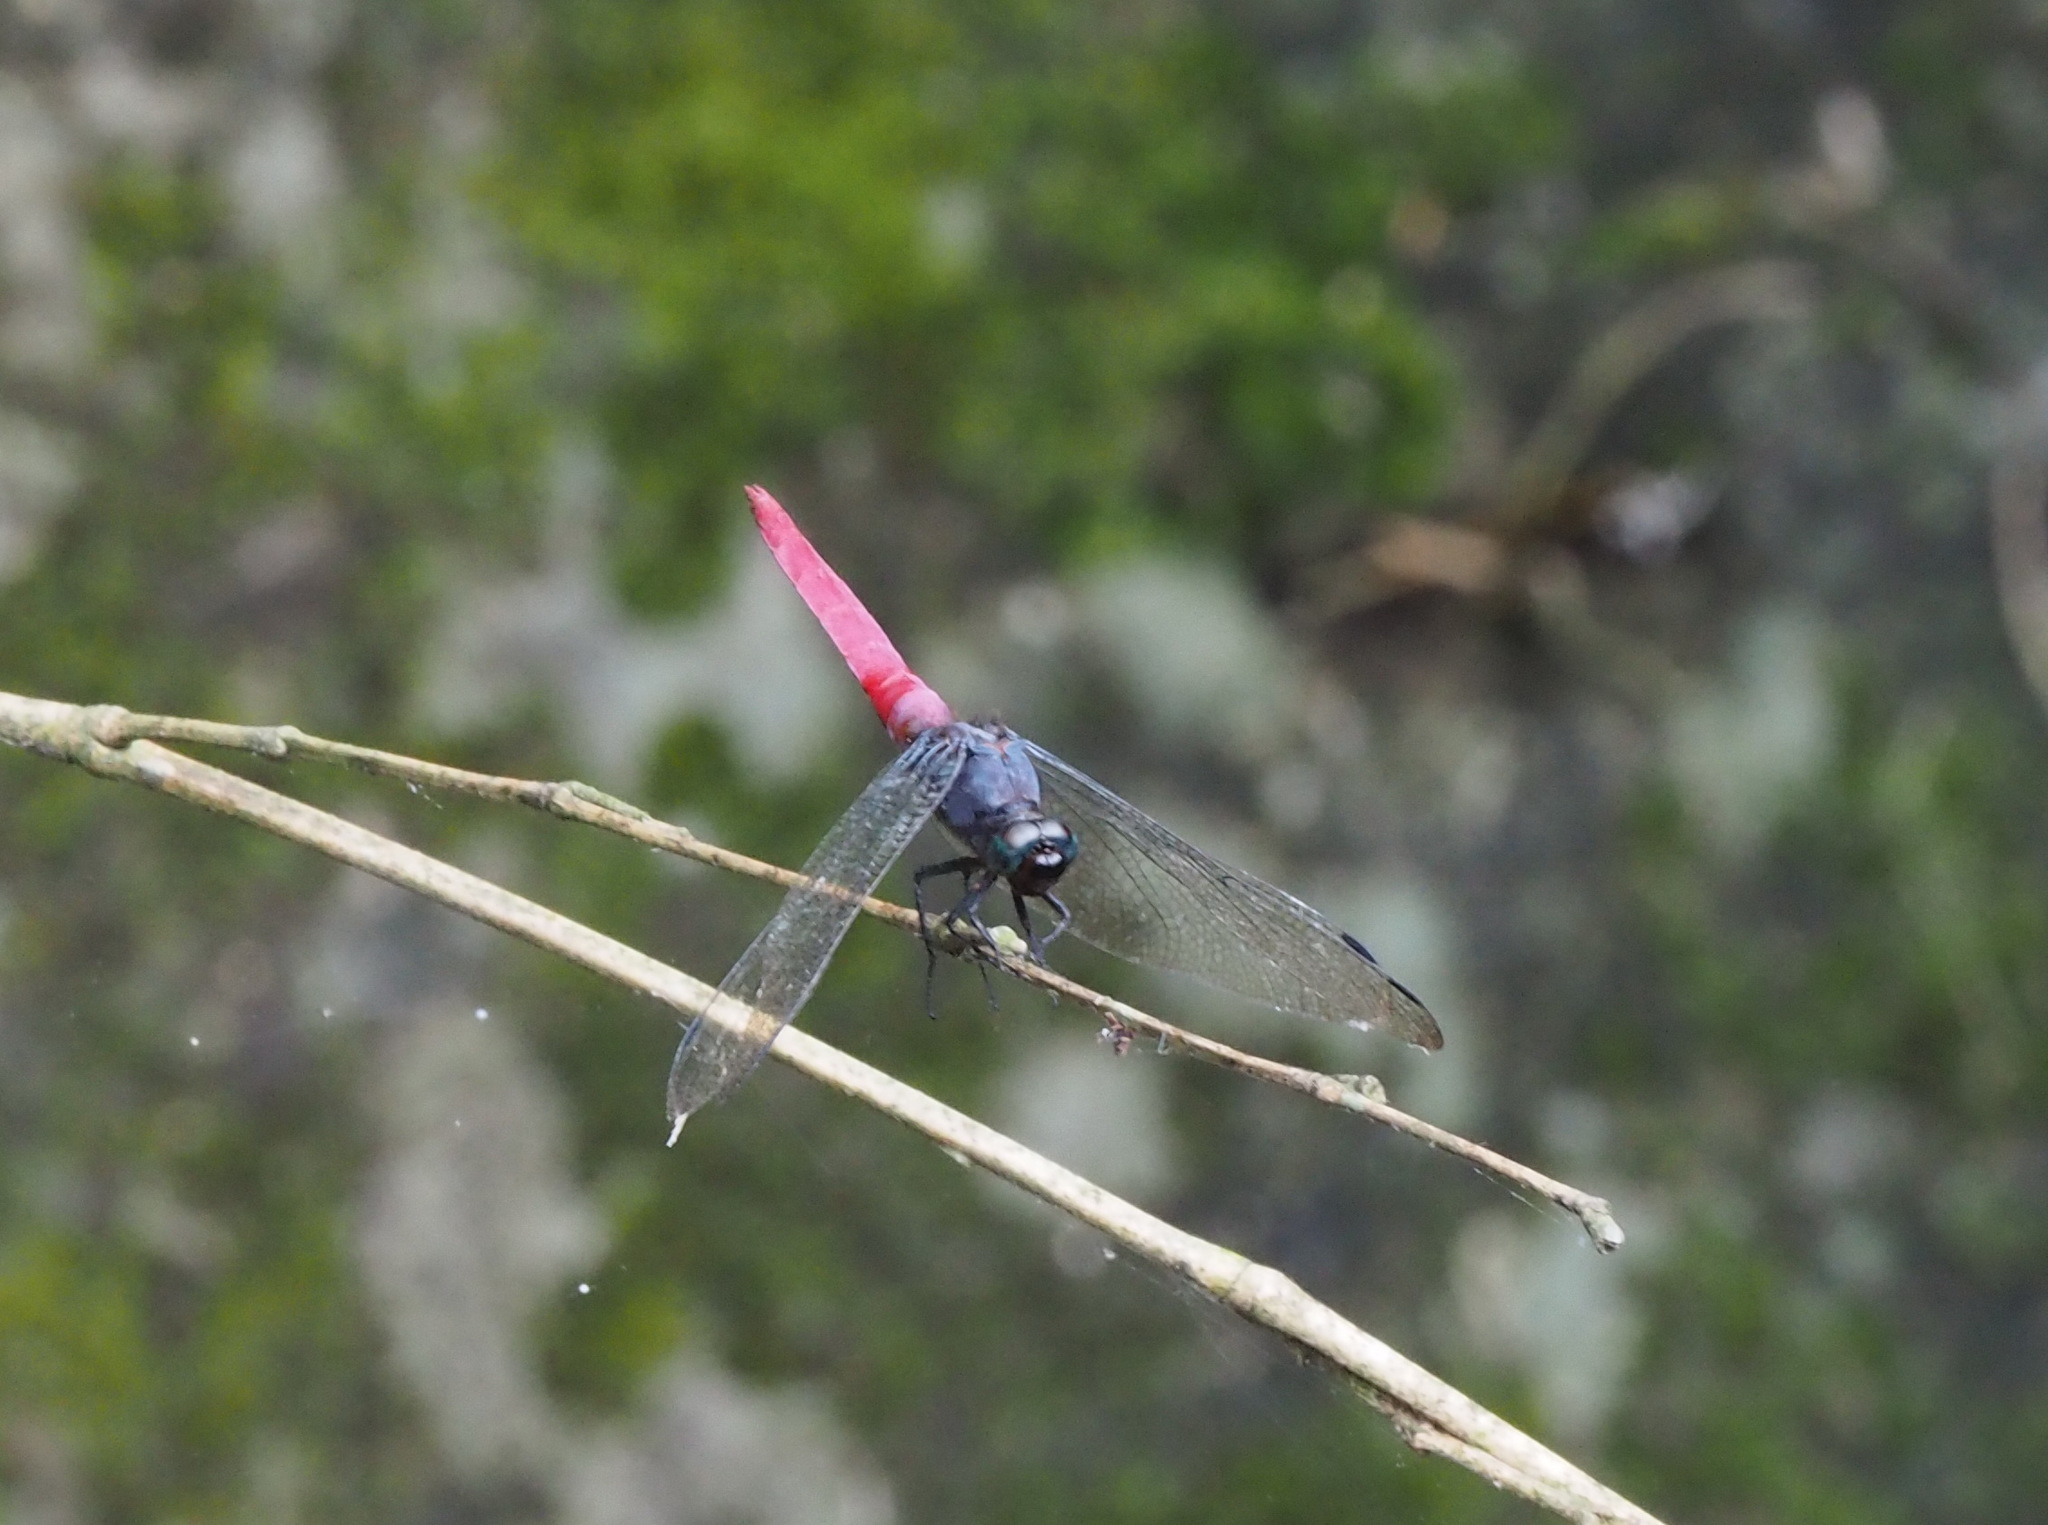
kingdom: Animalia
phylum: Arthropoda
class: Insecta
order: Odonata
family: Libellulidae
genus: Orthetrum
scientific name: Orthetrum pruinosum
